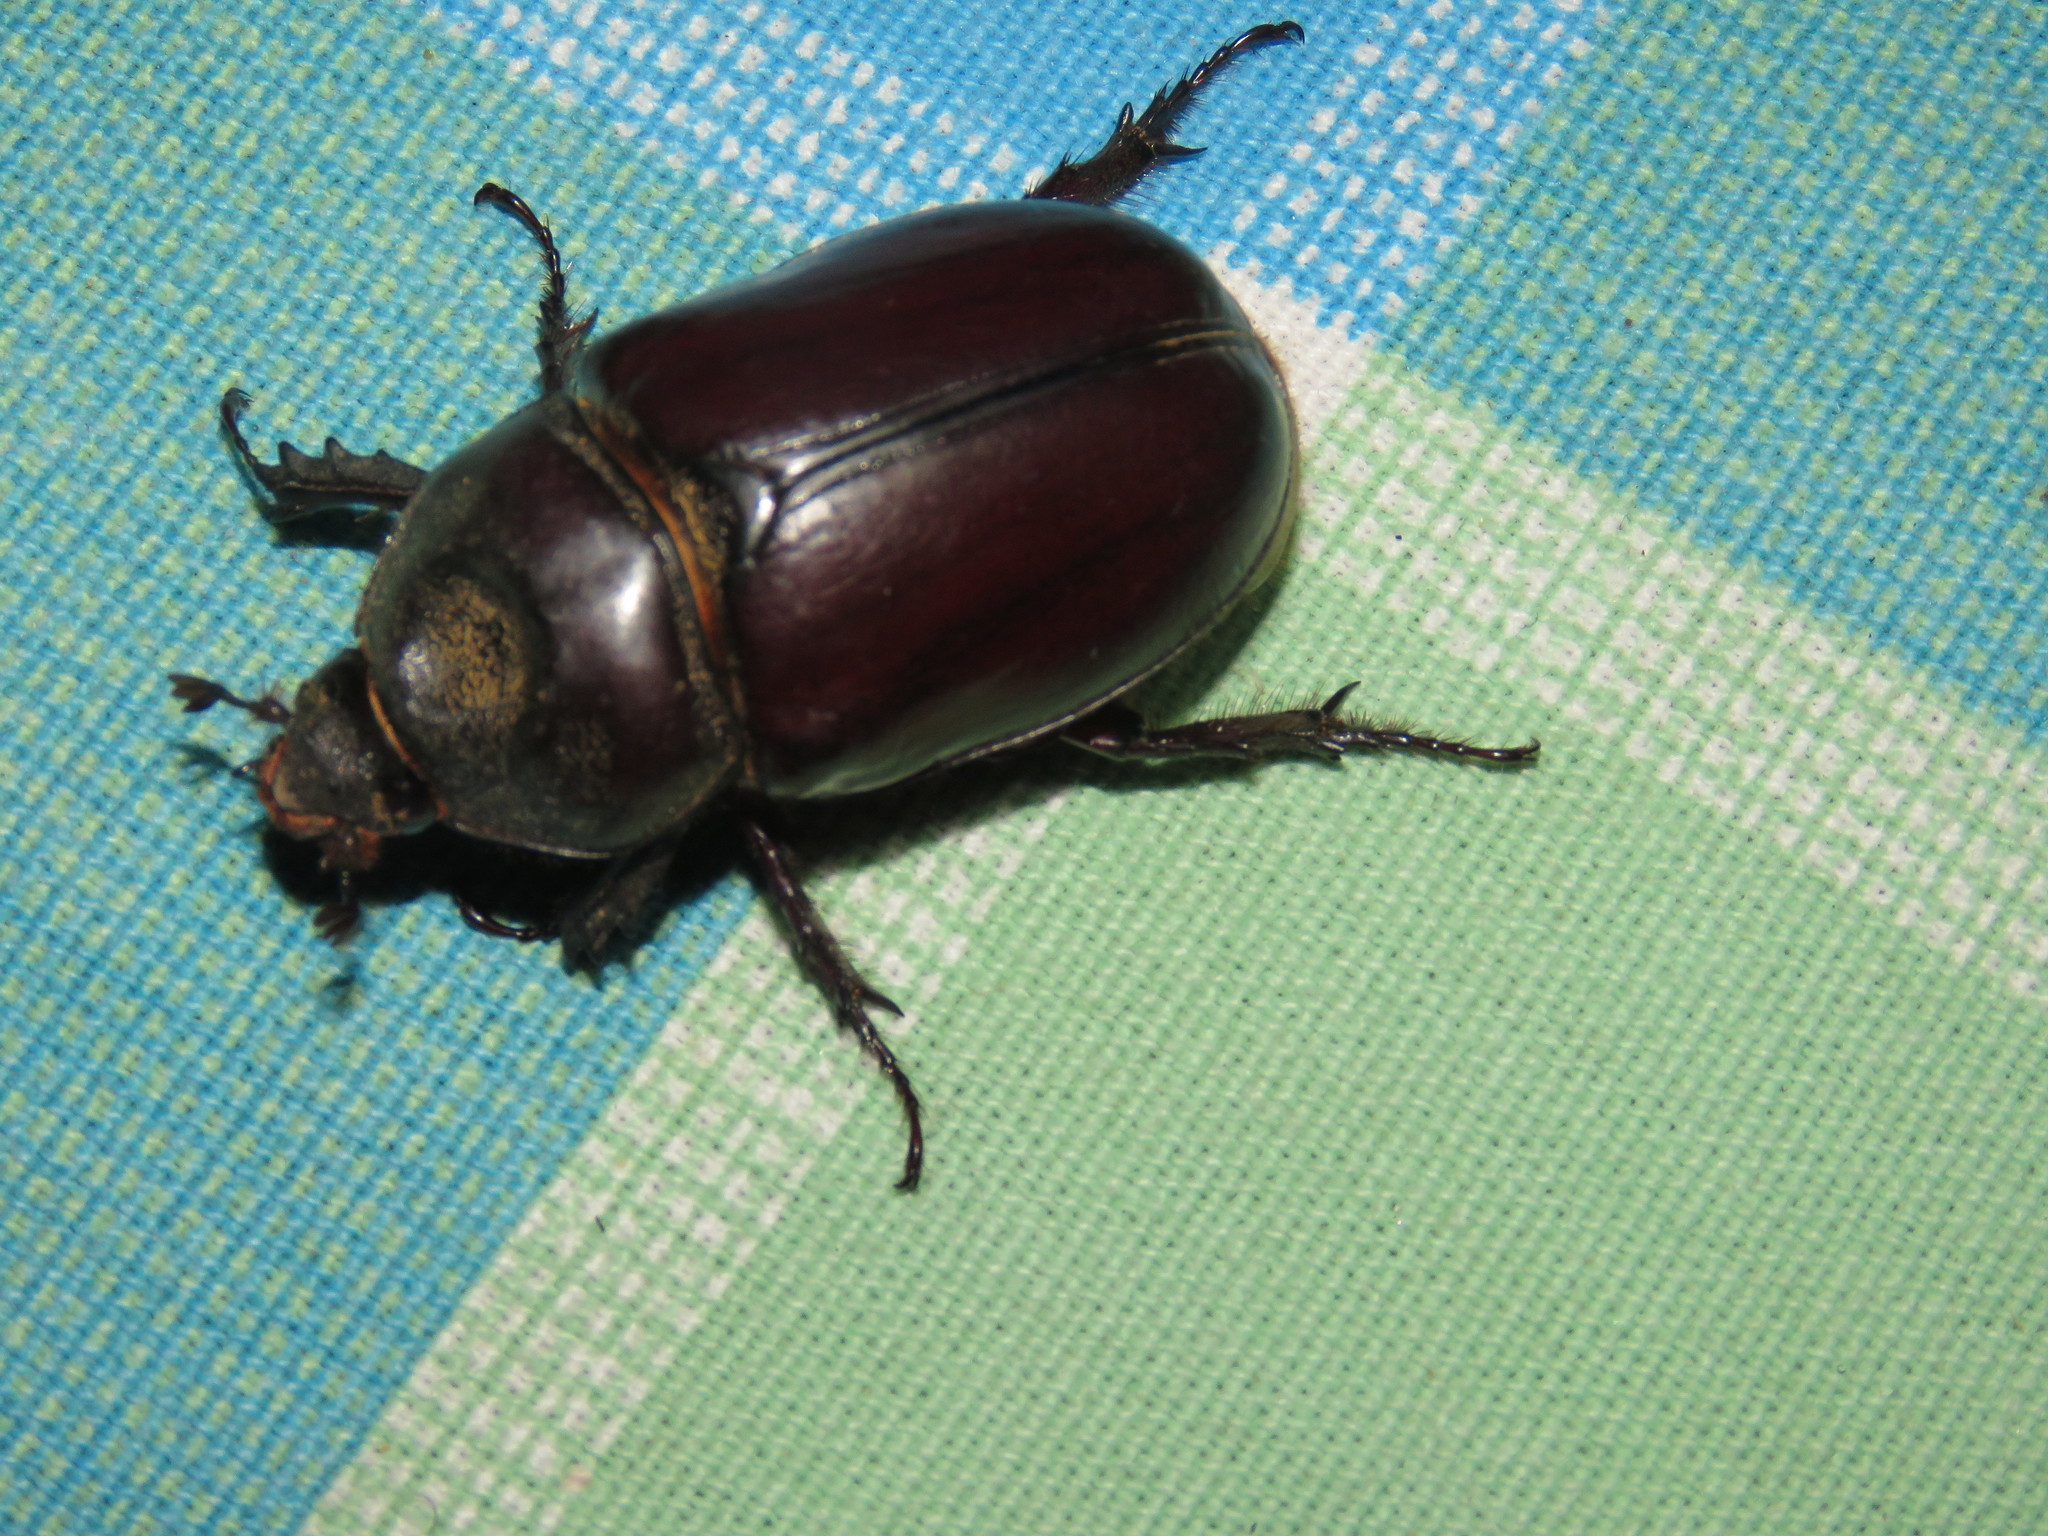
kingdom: Animalia
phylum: Arthropoda
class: Insecta
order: Coleoptera
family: Scarabaeidae
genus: Strategus
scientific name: Strategus aloeus
